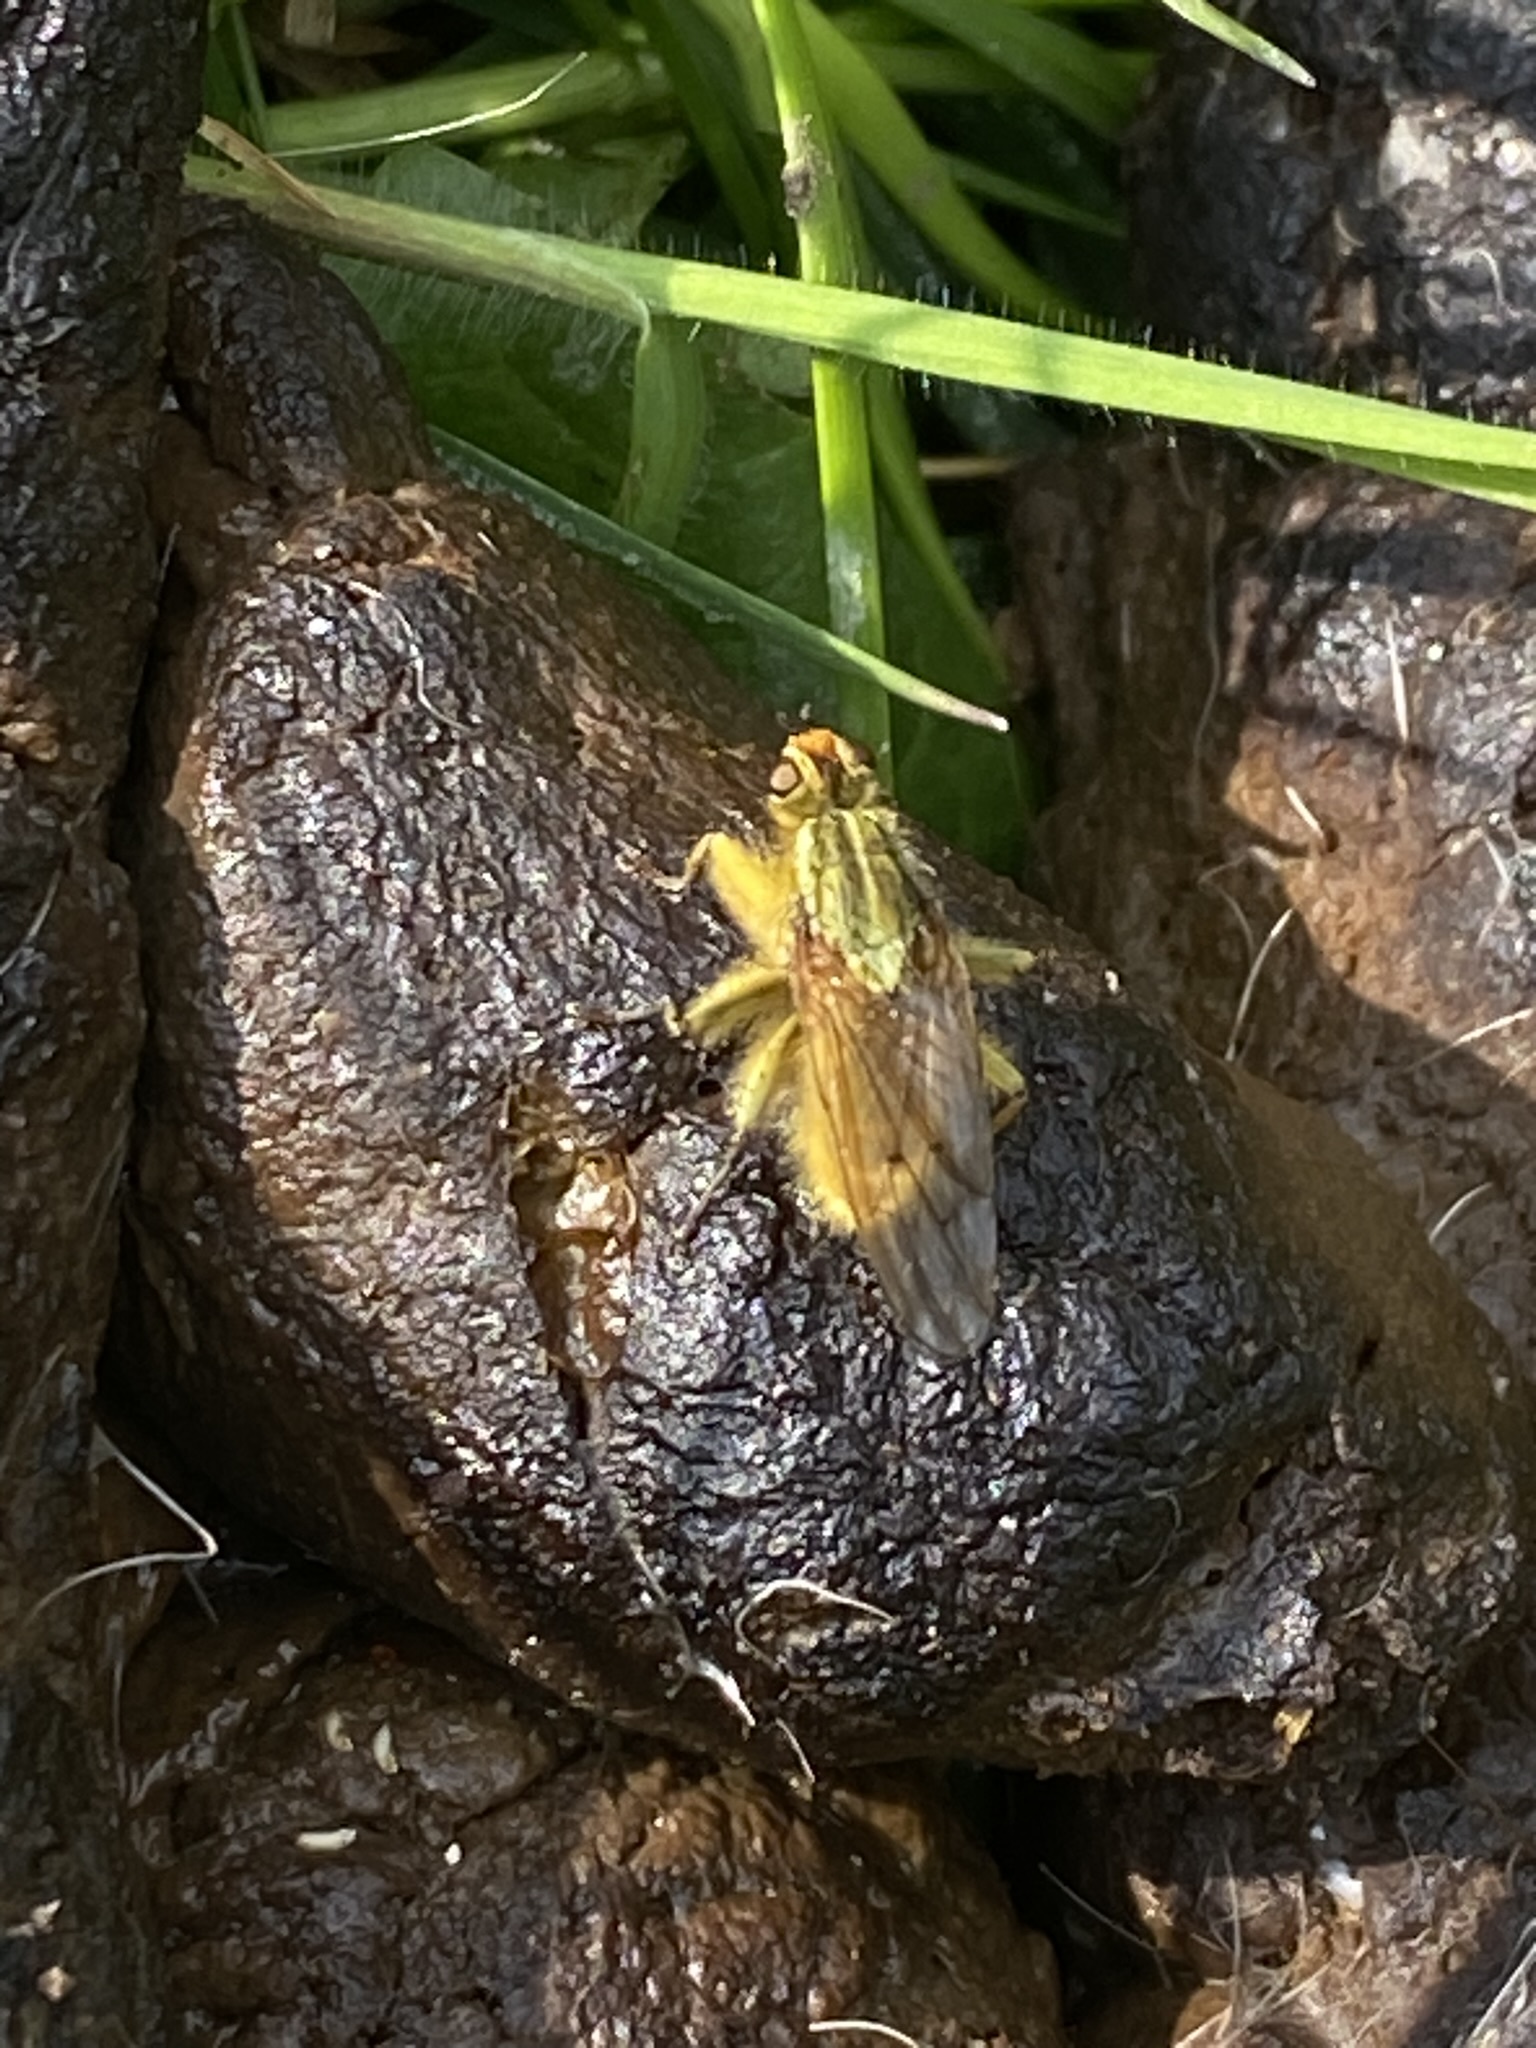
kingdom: Animalia
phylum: Arthropoda
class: Insecta
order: Diptera
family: Scathophagidae
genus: Scathophaga
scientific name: Scathophaga stercoraria
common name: Yellow dung fly
